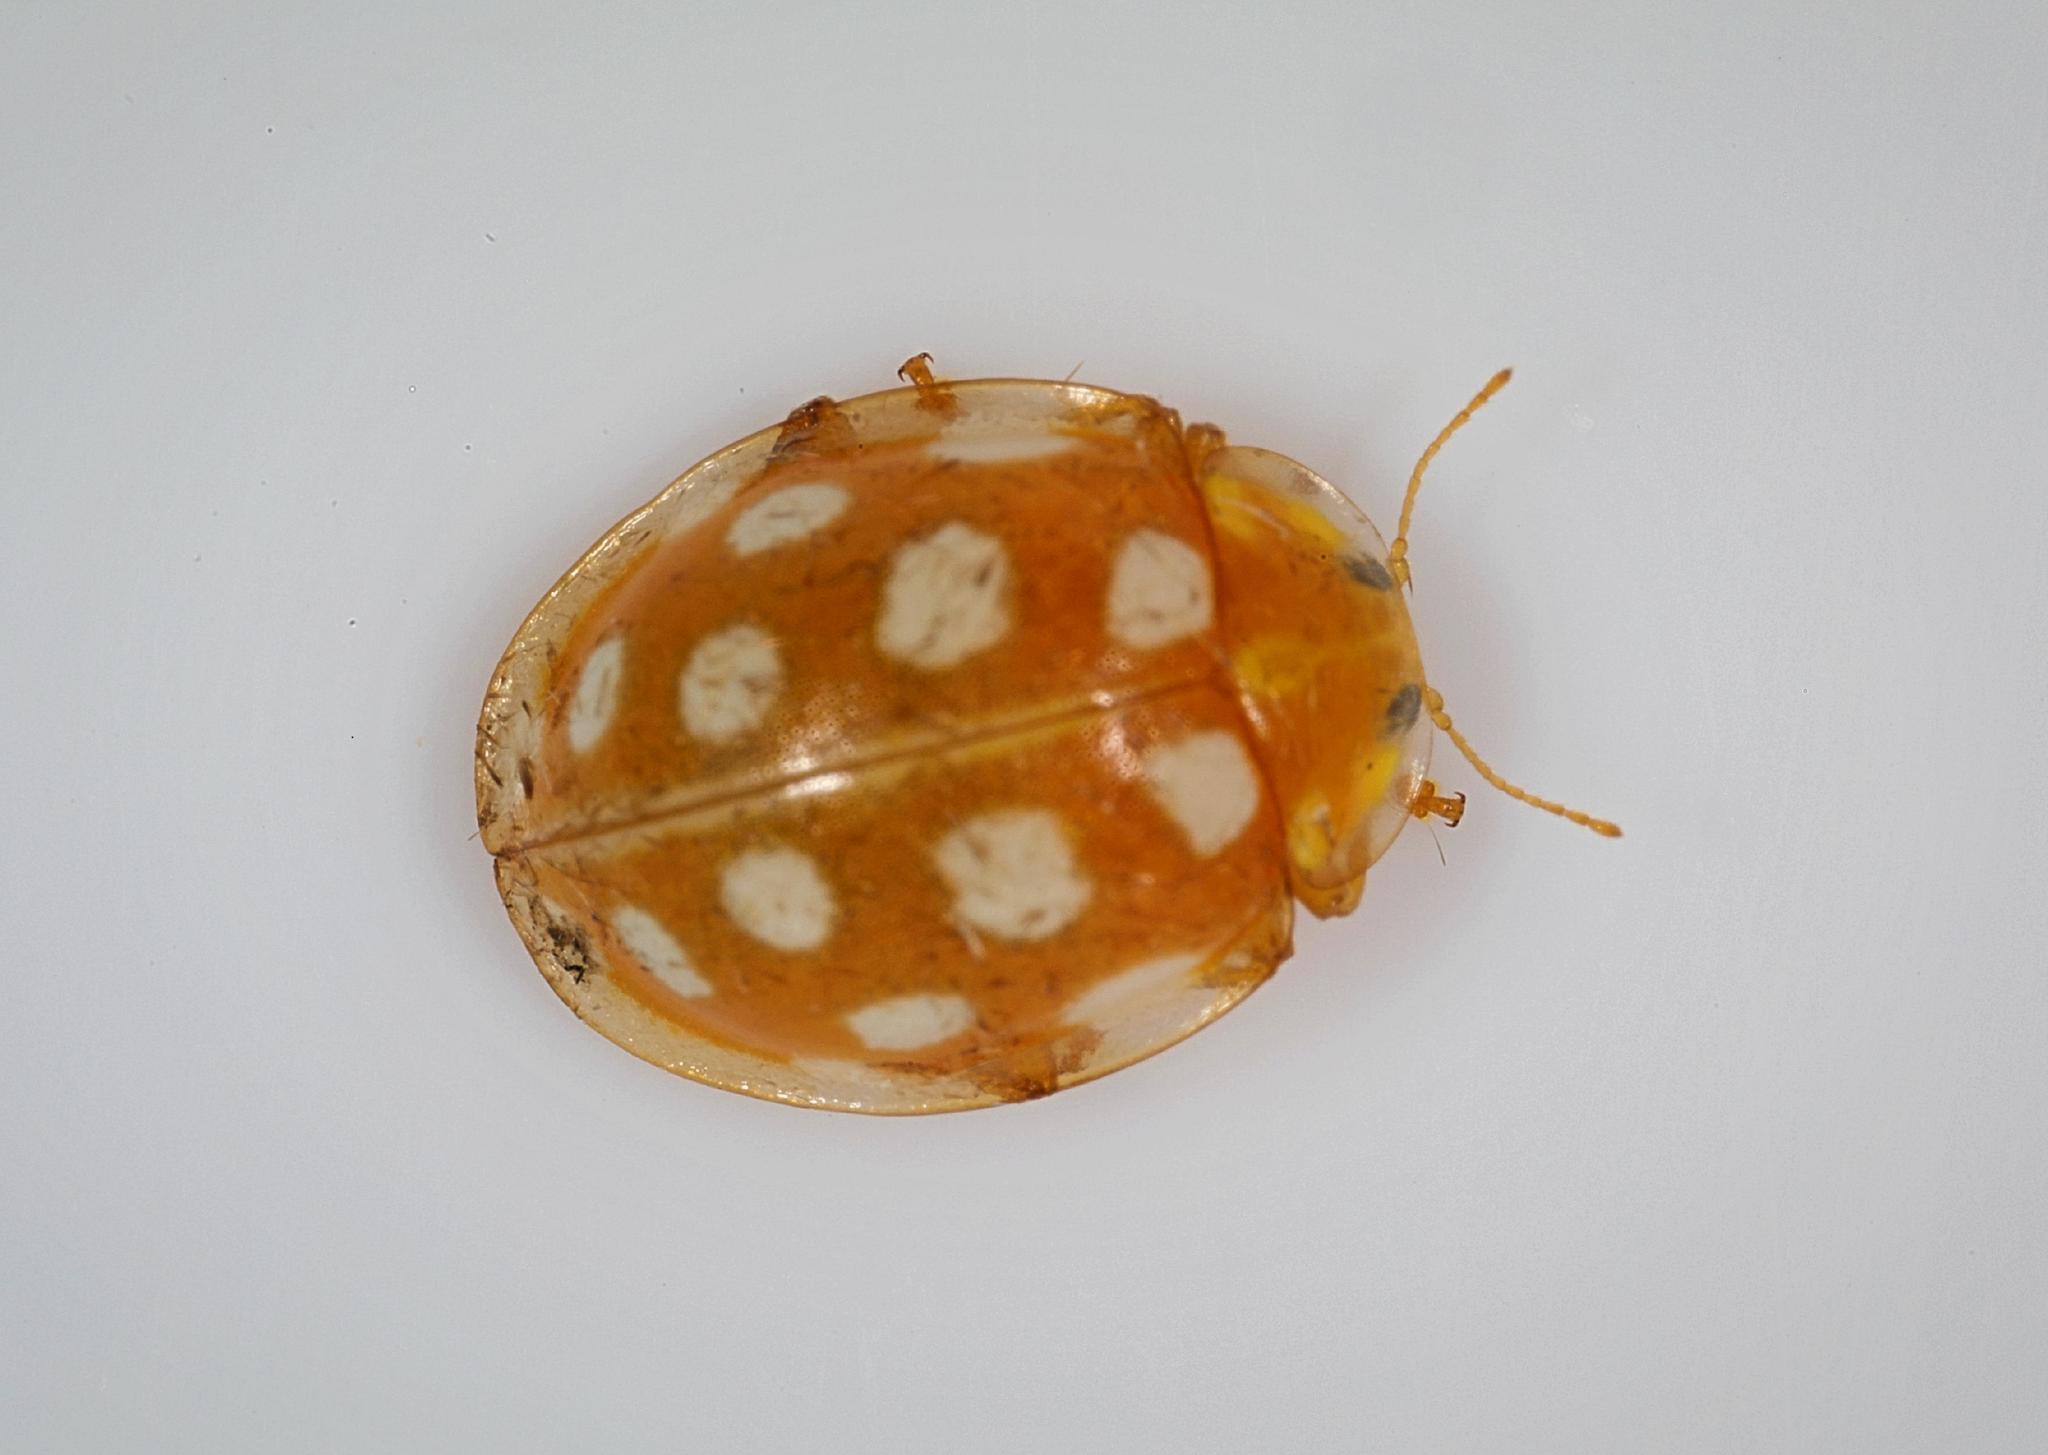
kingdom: Animalia
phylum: Arthropoda
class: Insecta
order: Coleoptera
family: Coccinellidae
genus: Halyzia
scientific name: Halyzia sedecimguttata
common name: Orange ladybird
